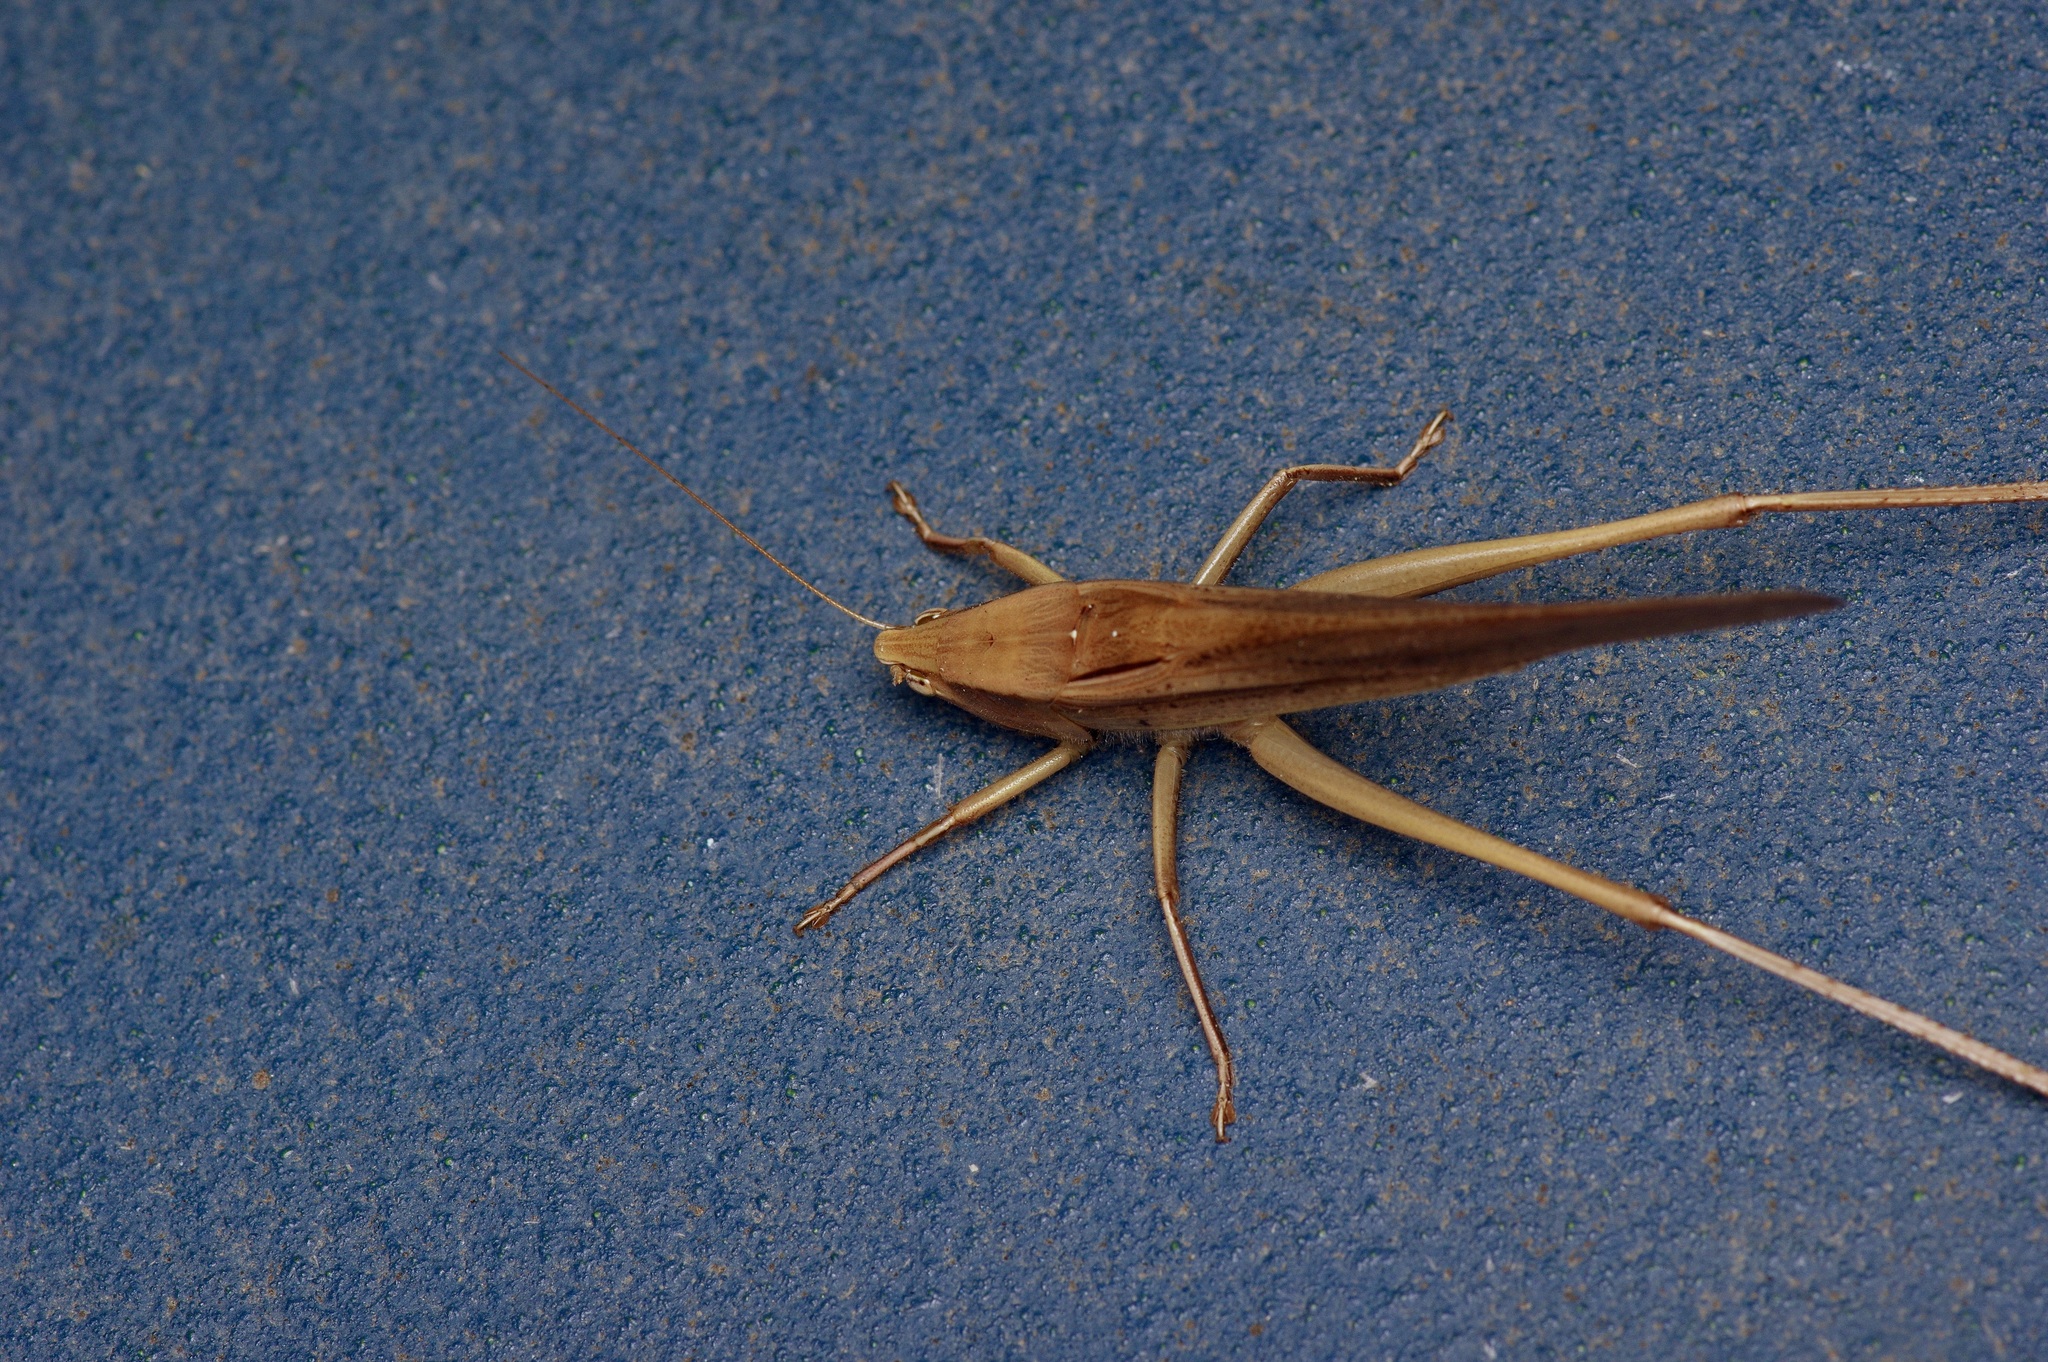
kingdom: Animalia
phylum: Arthropoda
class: Insecta
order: Orthoptera
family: Tettigoniidae
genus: Neoconocephalus
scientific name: Neoconocephalus triops
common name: Broad-tipped conehead
